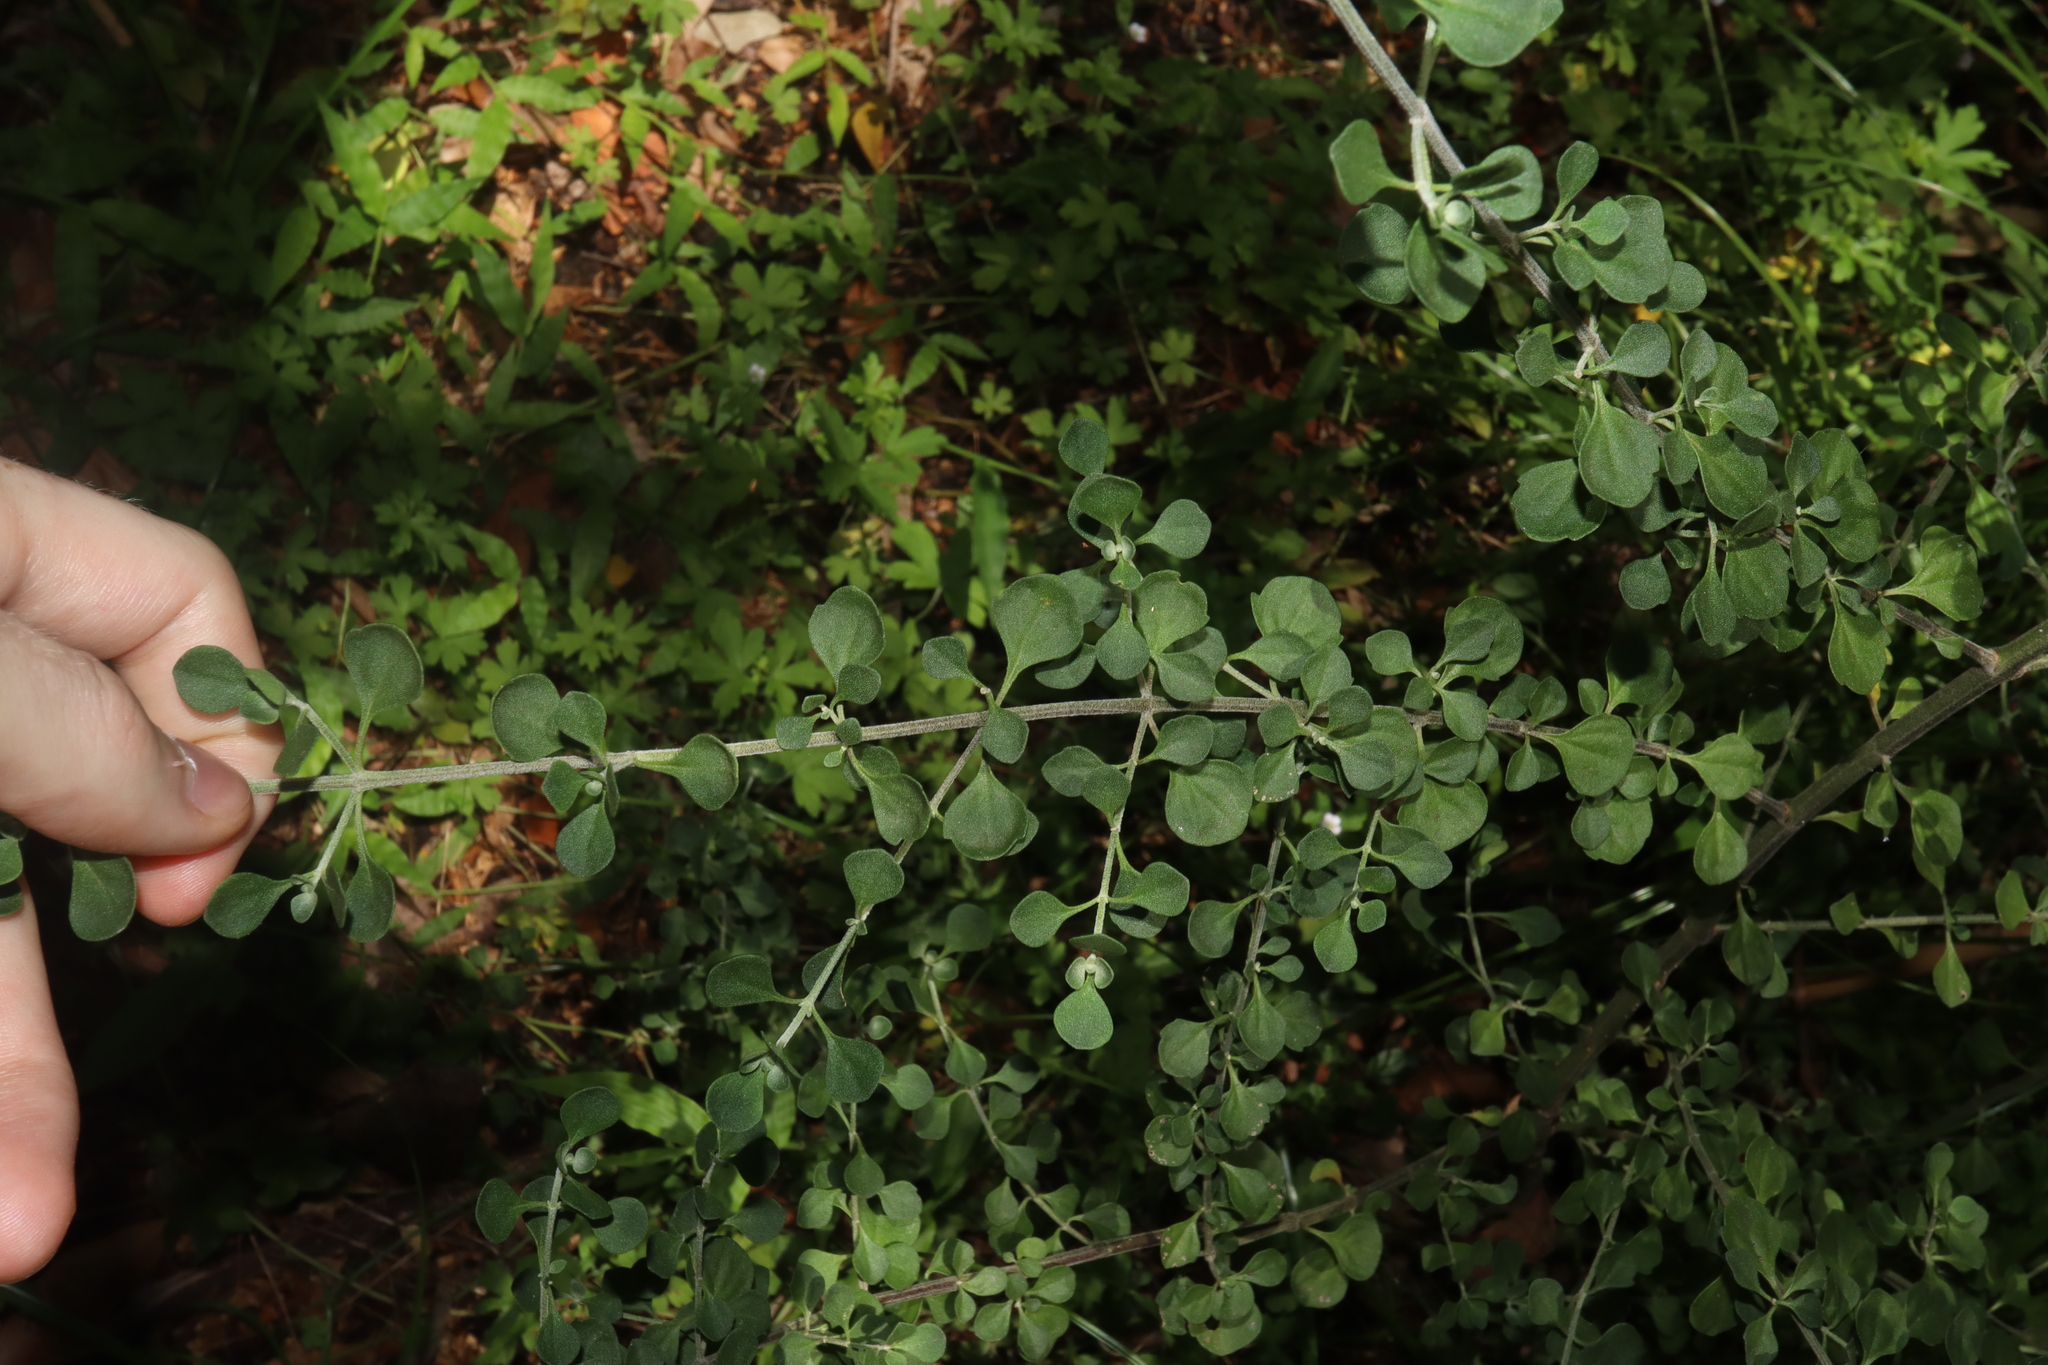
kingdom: Plantae
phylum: Tracheophyta
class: Magnoliopsida
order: Lamiales
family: Lamiaceae
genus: Prostanthera
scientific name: Prostanthera rotundifolia
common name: Round-leaf mintbush
